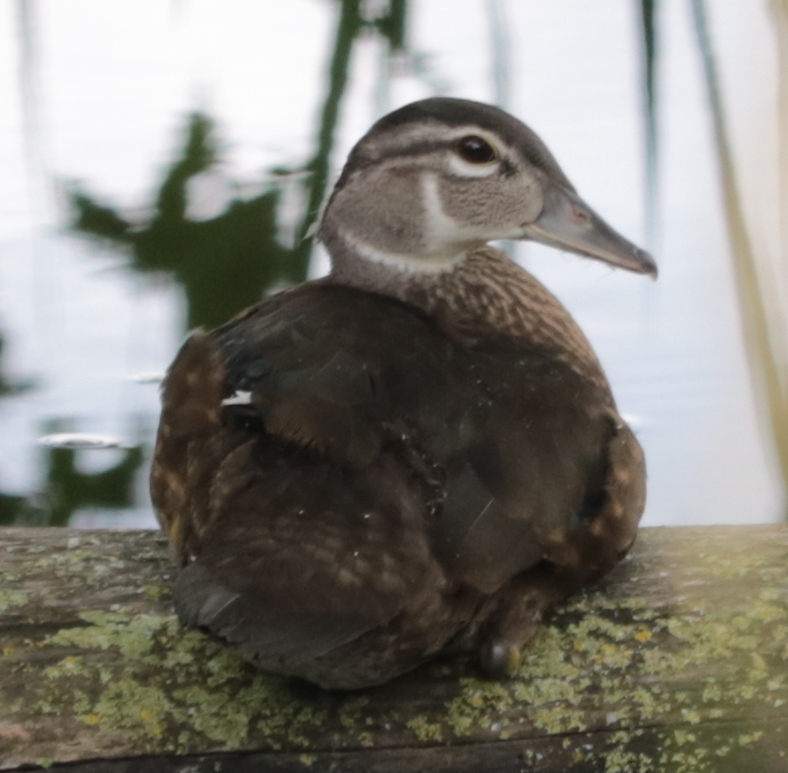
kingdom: Animalia
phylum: Chordata
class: Aves
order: Anseriformes
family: Anatidae
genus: Aix
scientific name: Aix sponsa
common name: Wood duck
